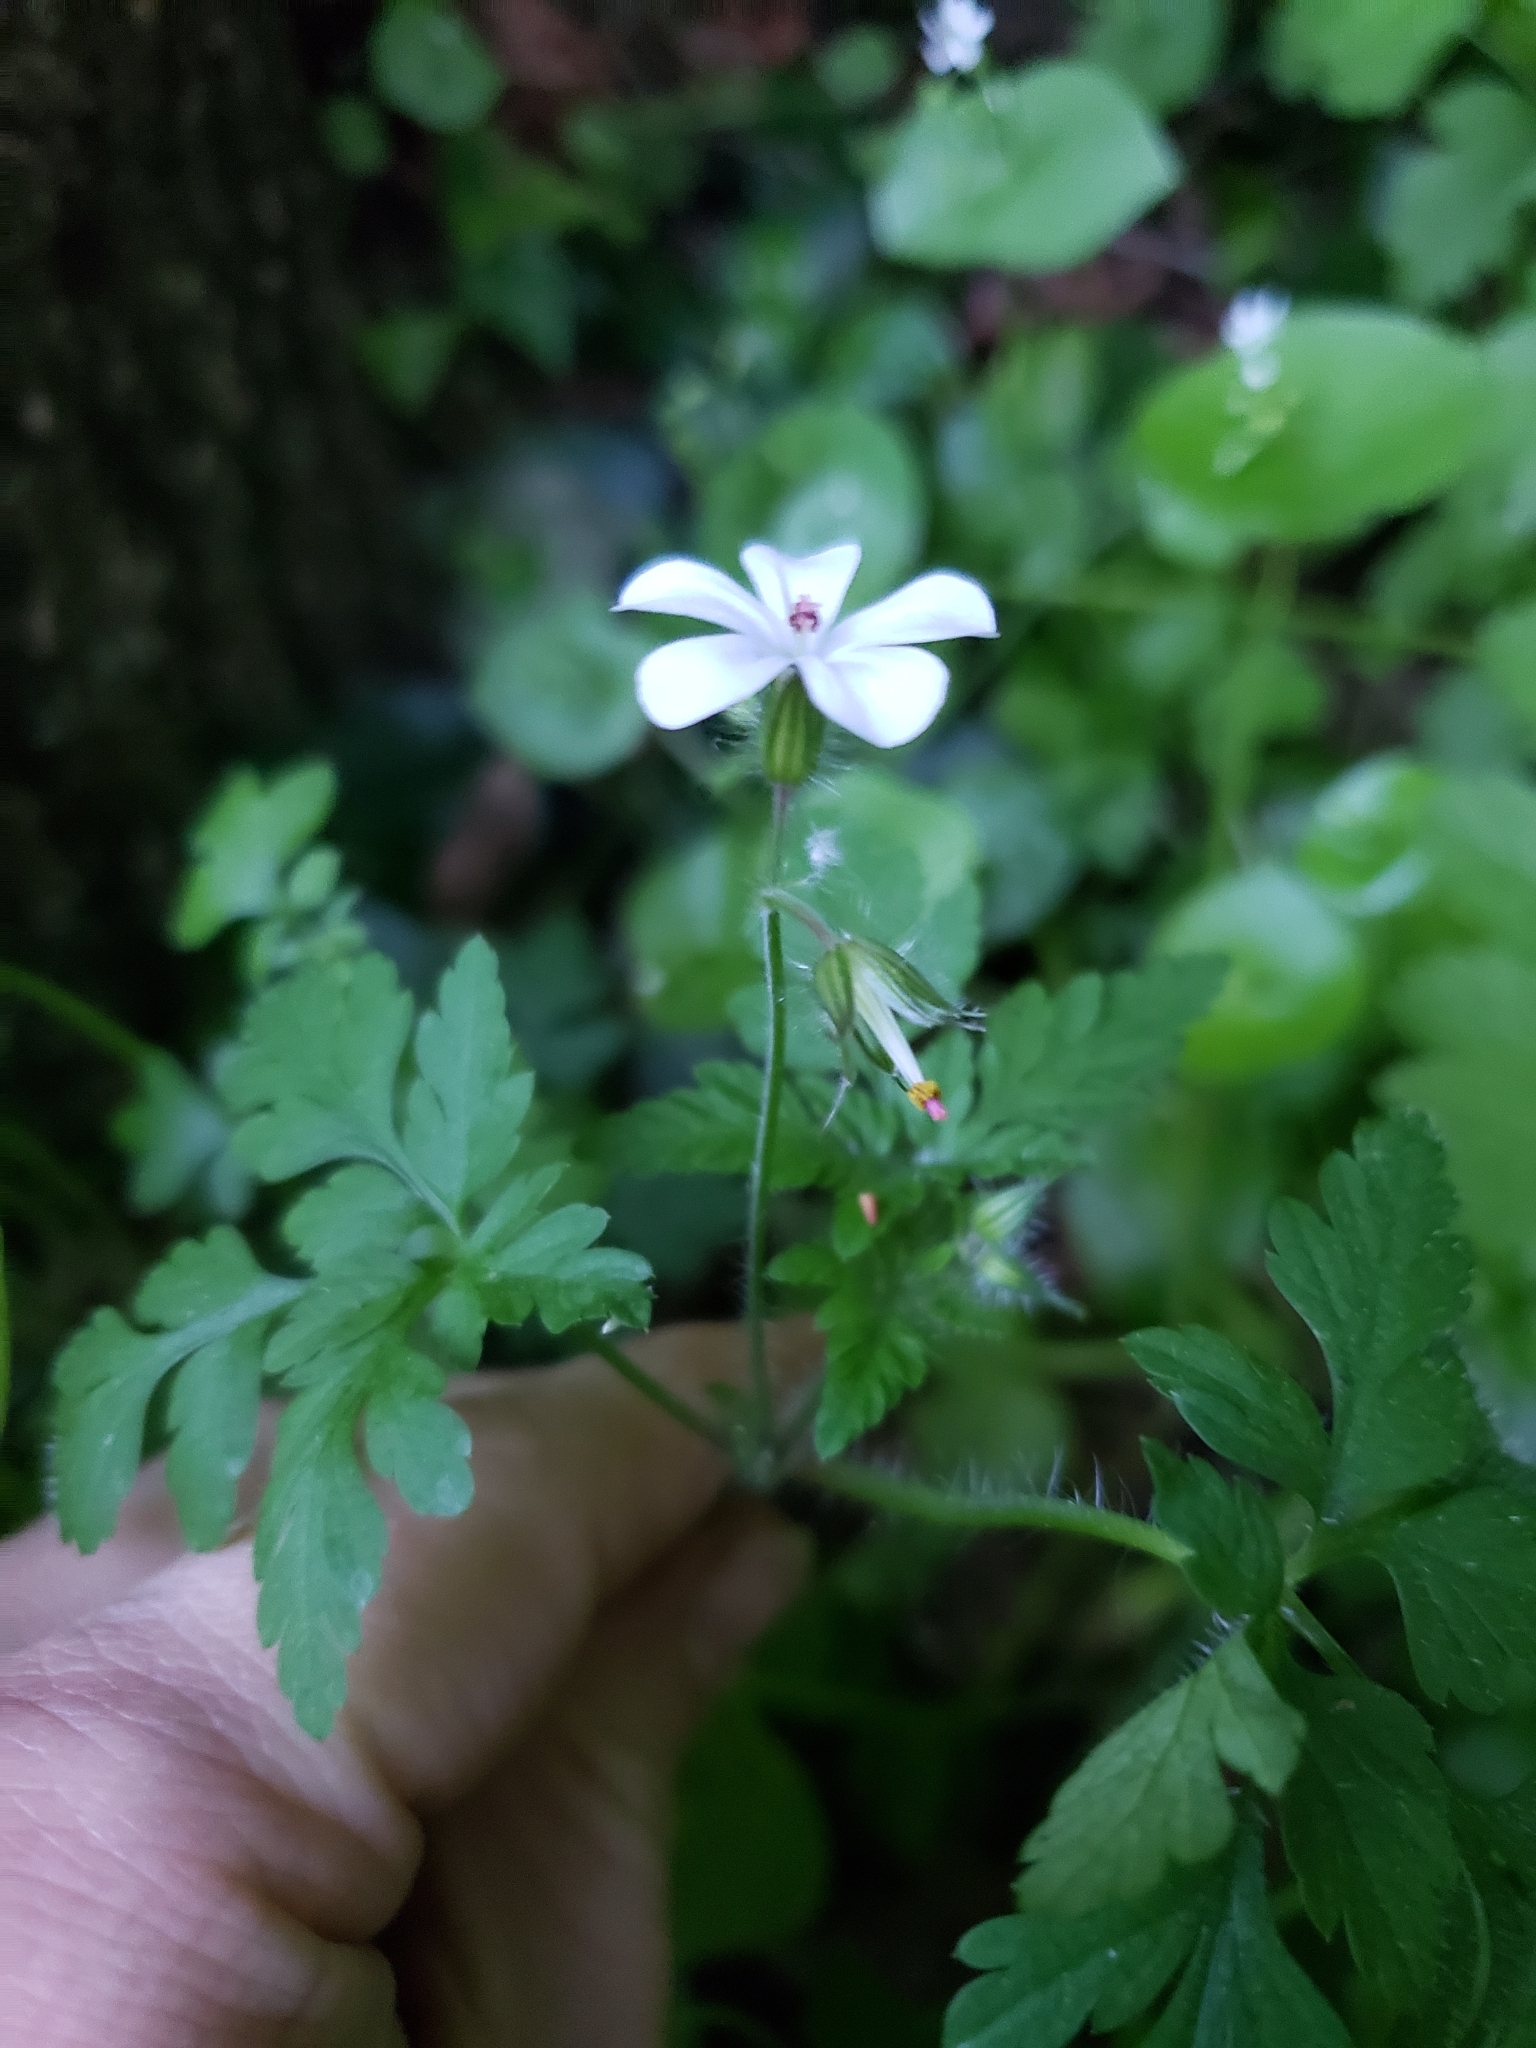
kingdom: Plantae
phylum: Tracheophyta
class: Magnoliopsida
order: Geraniales
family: Geraniaceae
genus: Geranium
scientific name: Geranium robertianum
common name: Herb-robert
